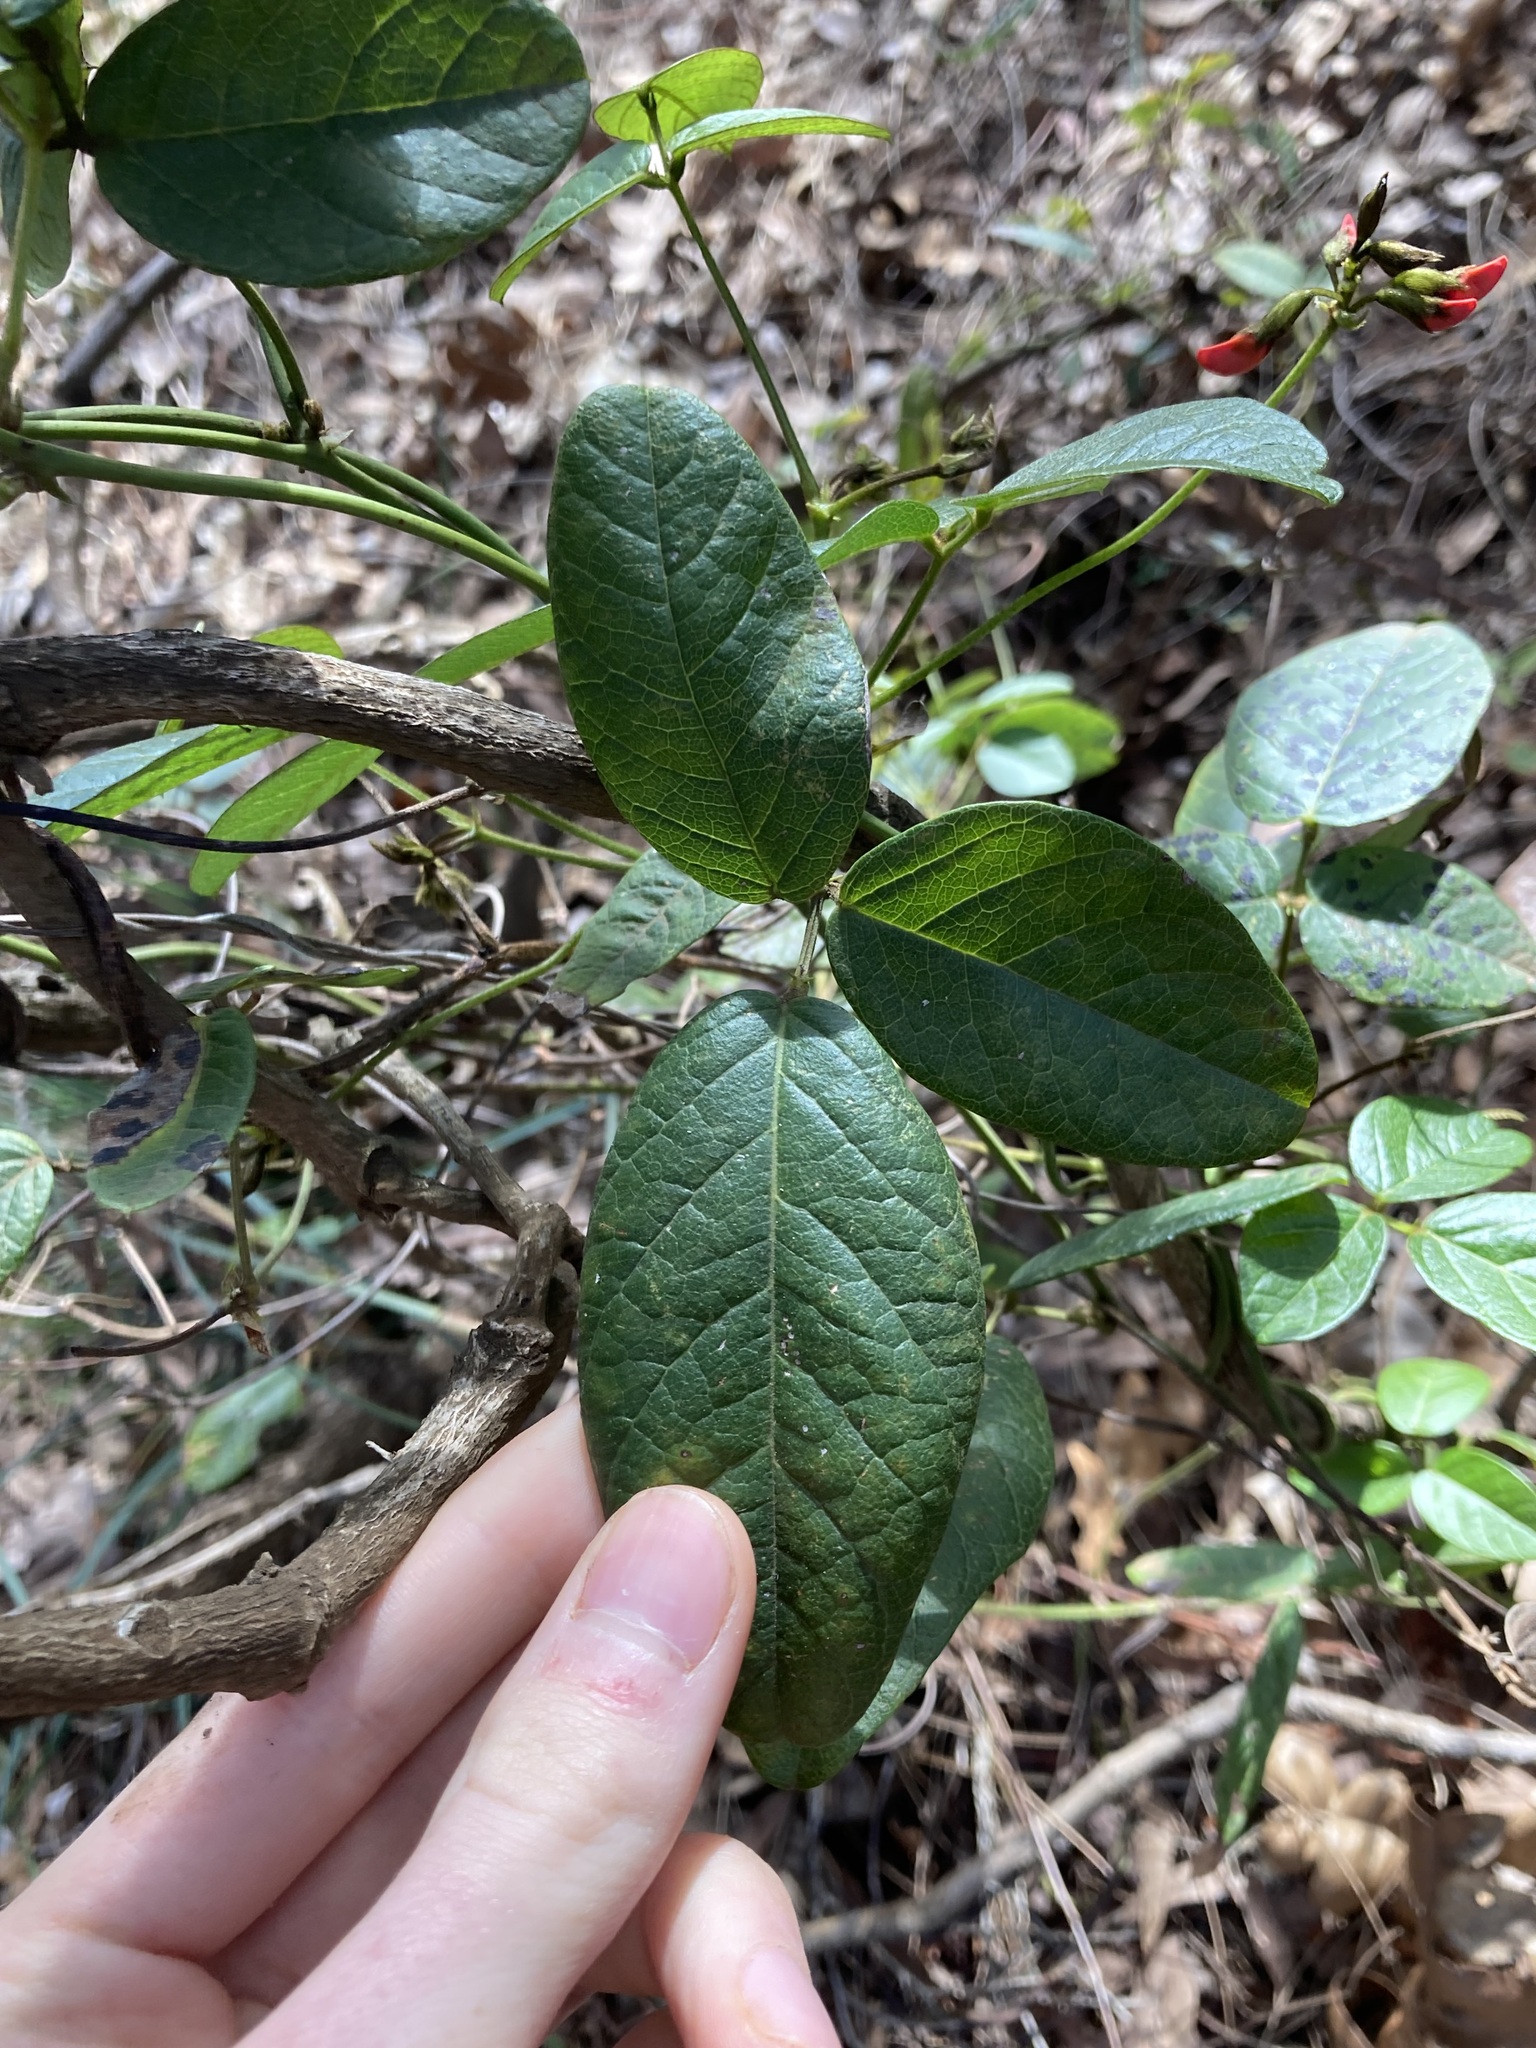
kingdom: Plantae
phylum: Tracheophyta
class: Magnoliopsida
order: Fabales
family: Fabaceae
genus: Kennedia
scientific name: Kennedia coccinea
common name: Coralvine
